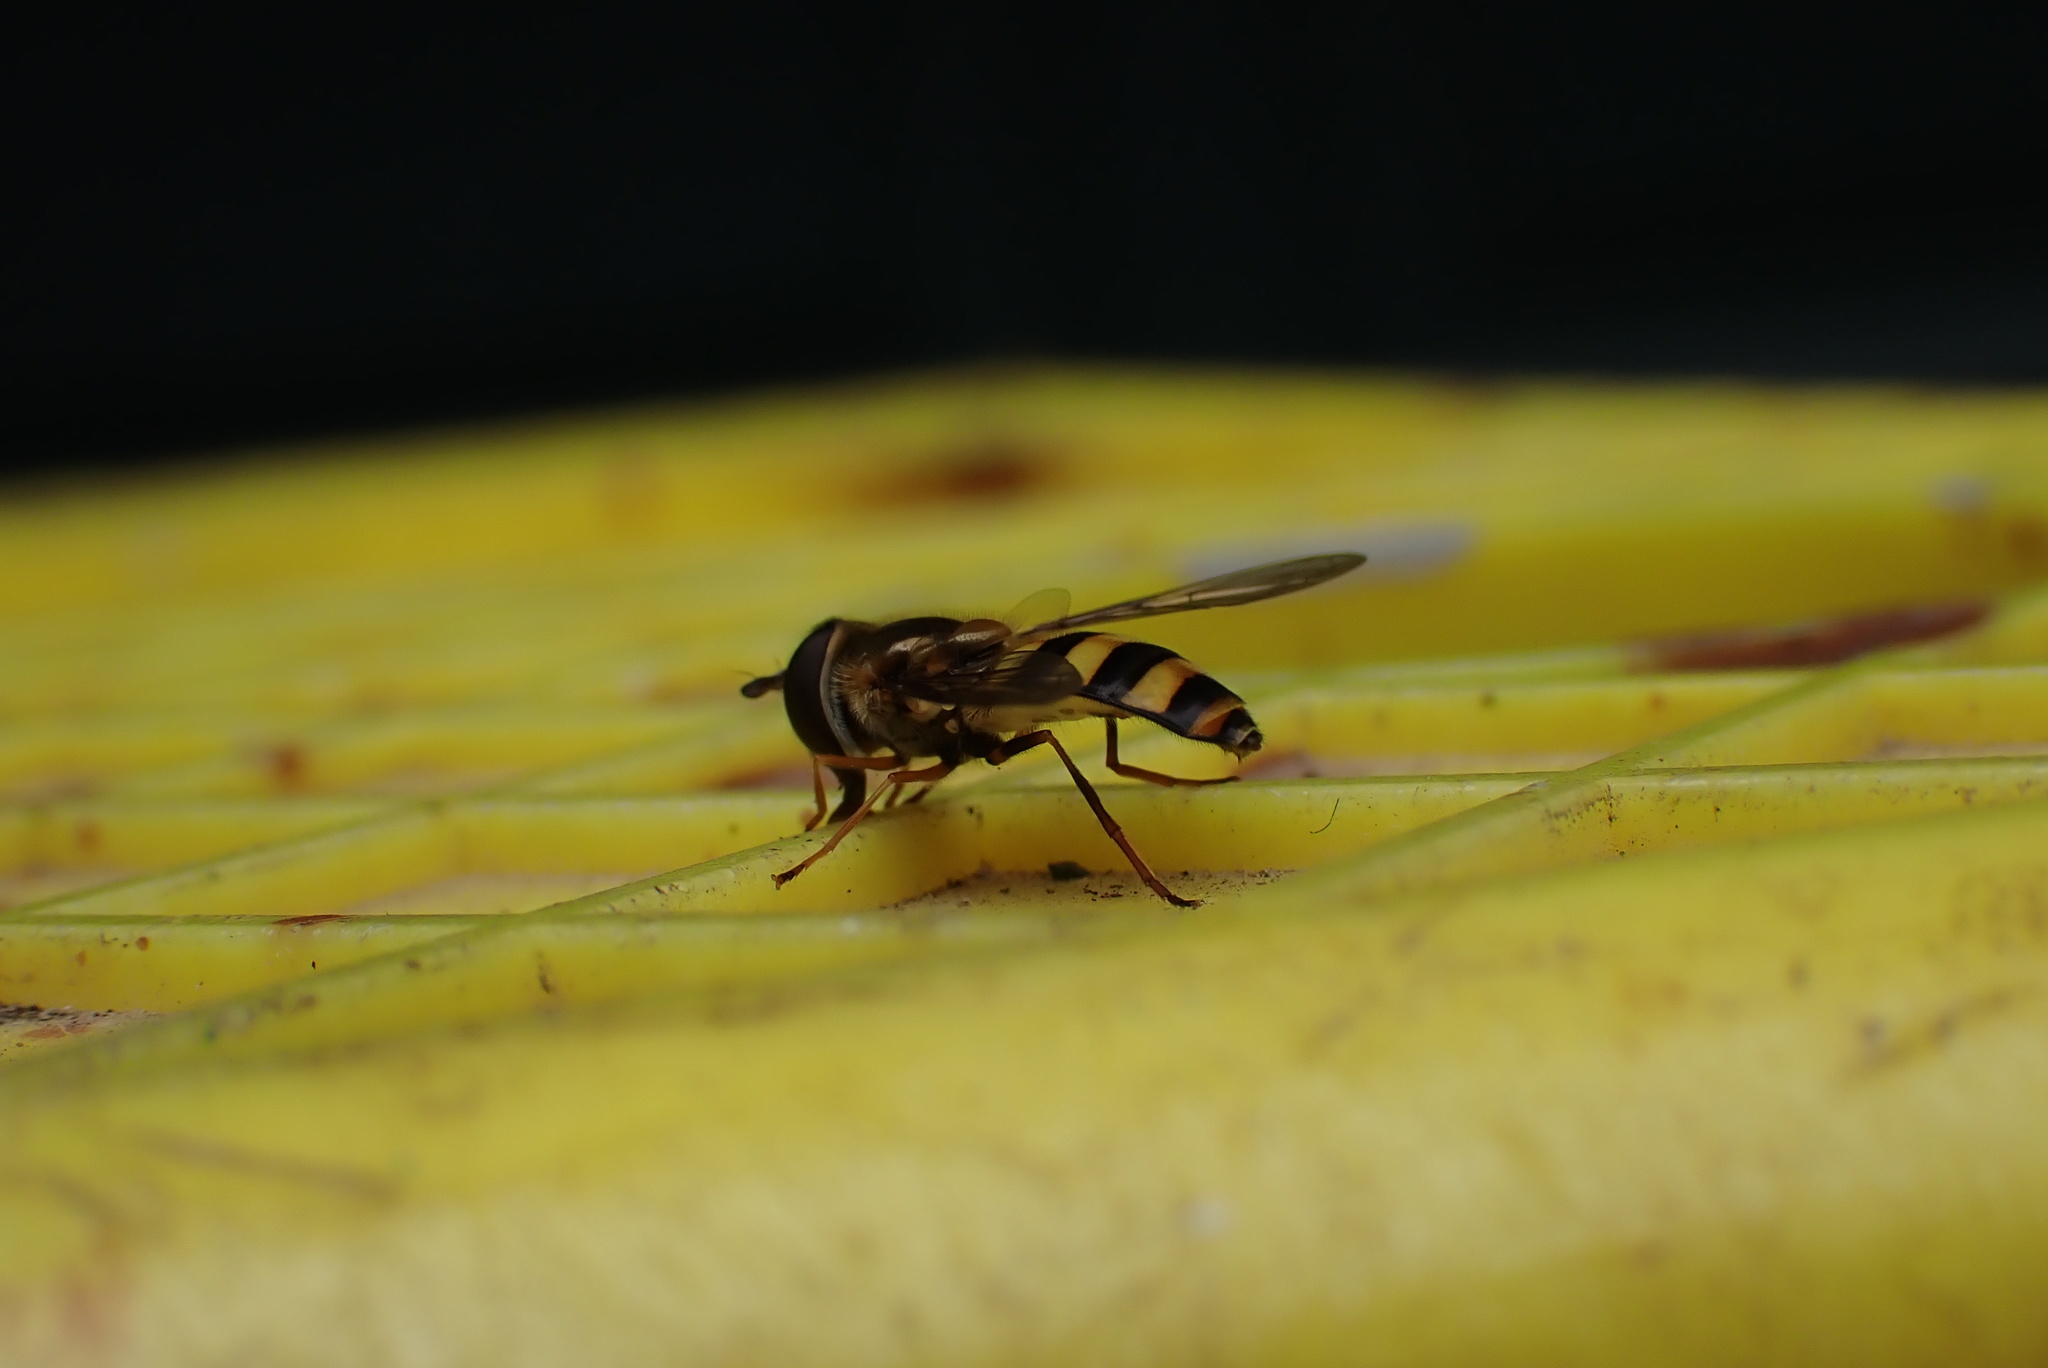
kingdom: Animalia
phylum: Arthropoda
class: Insecta
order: Diptera
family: Syrphidae
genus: Eupeodes
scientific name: Eupeodes
